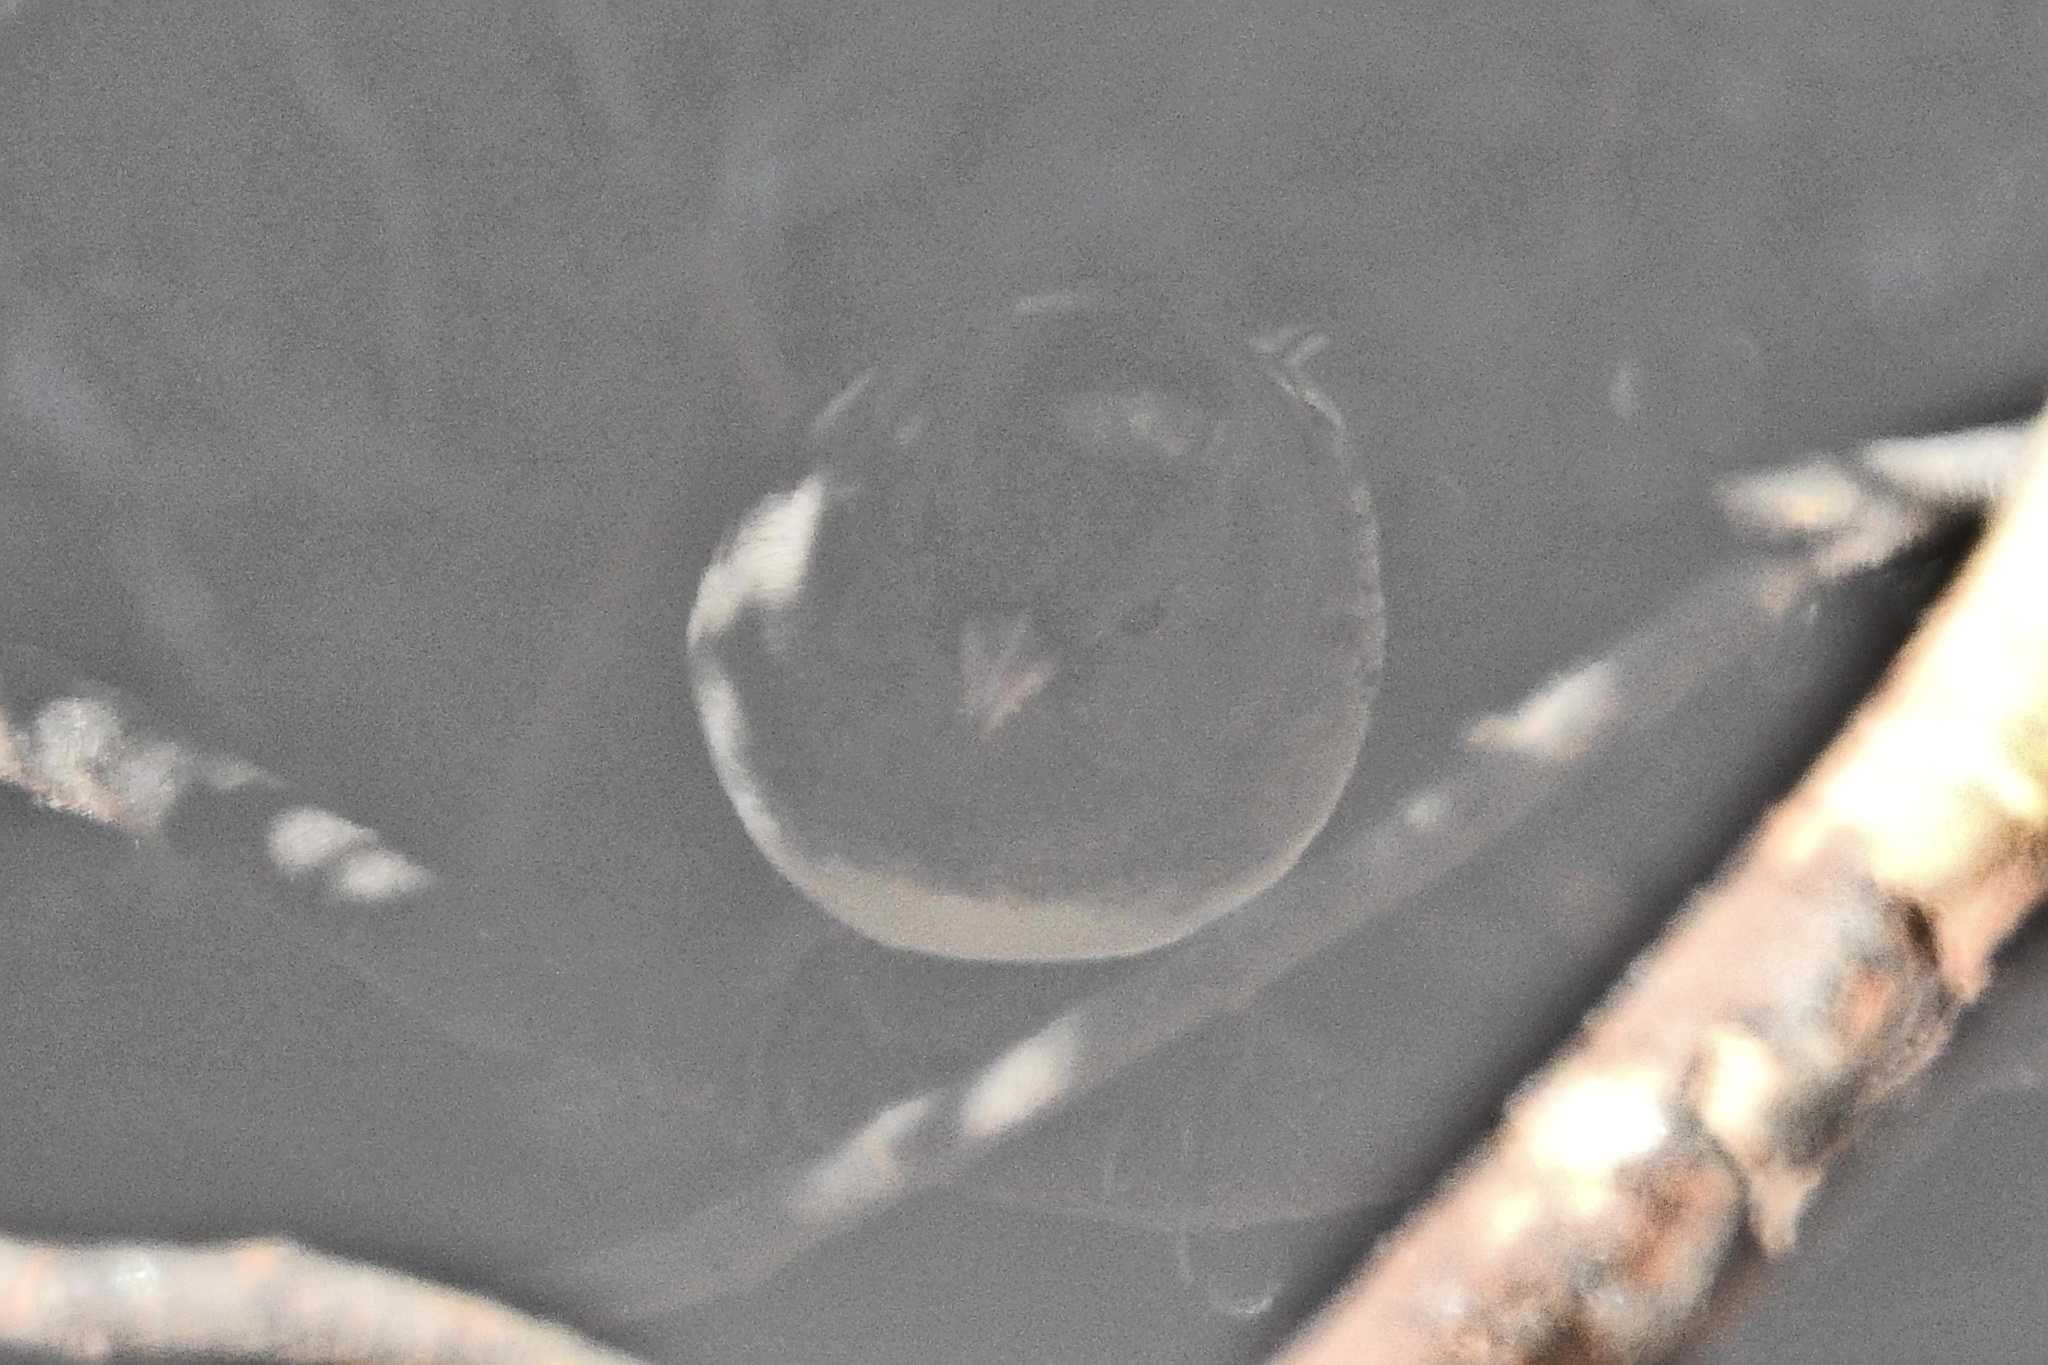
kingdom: Animalia
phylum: Chordata
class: Aves
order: Passeriformes
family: Passerellidae
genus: Junco
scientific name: Junco hyemalis
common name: Dark-eyed junco
